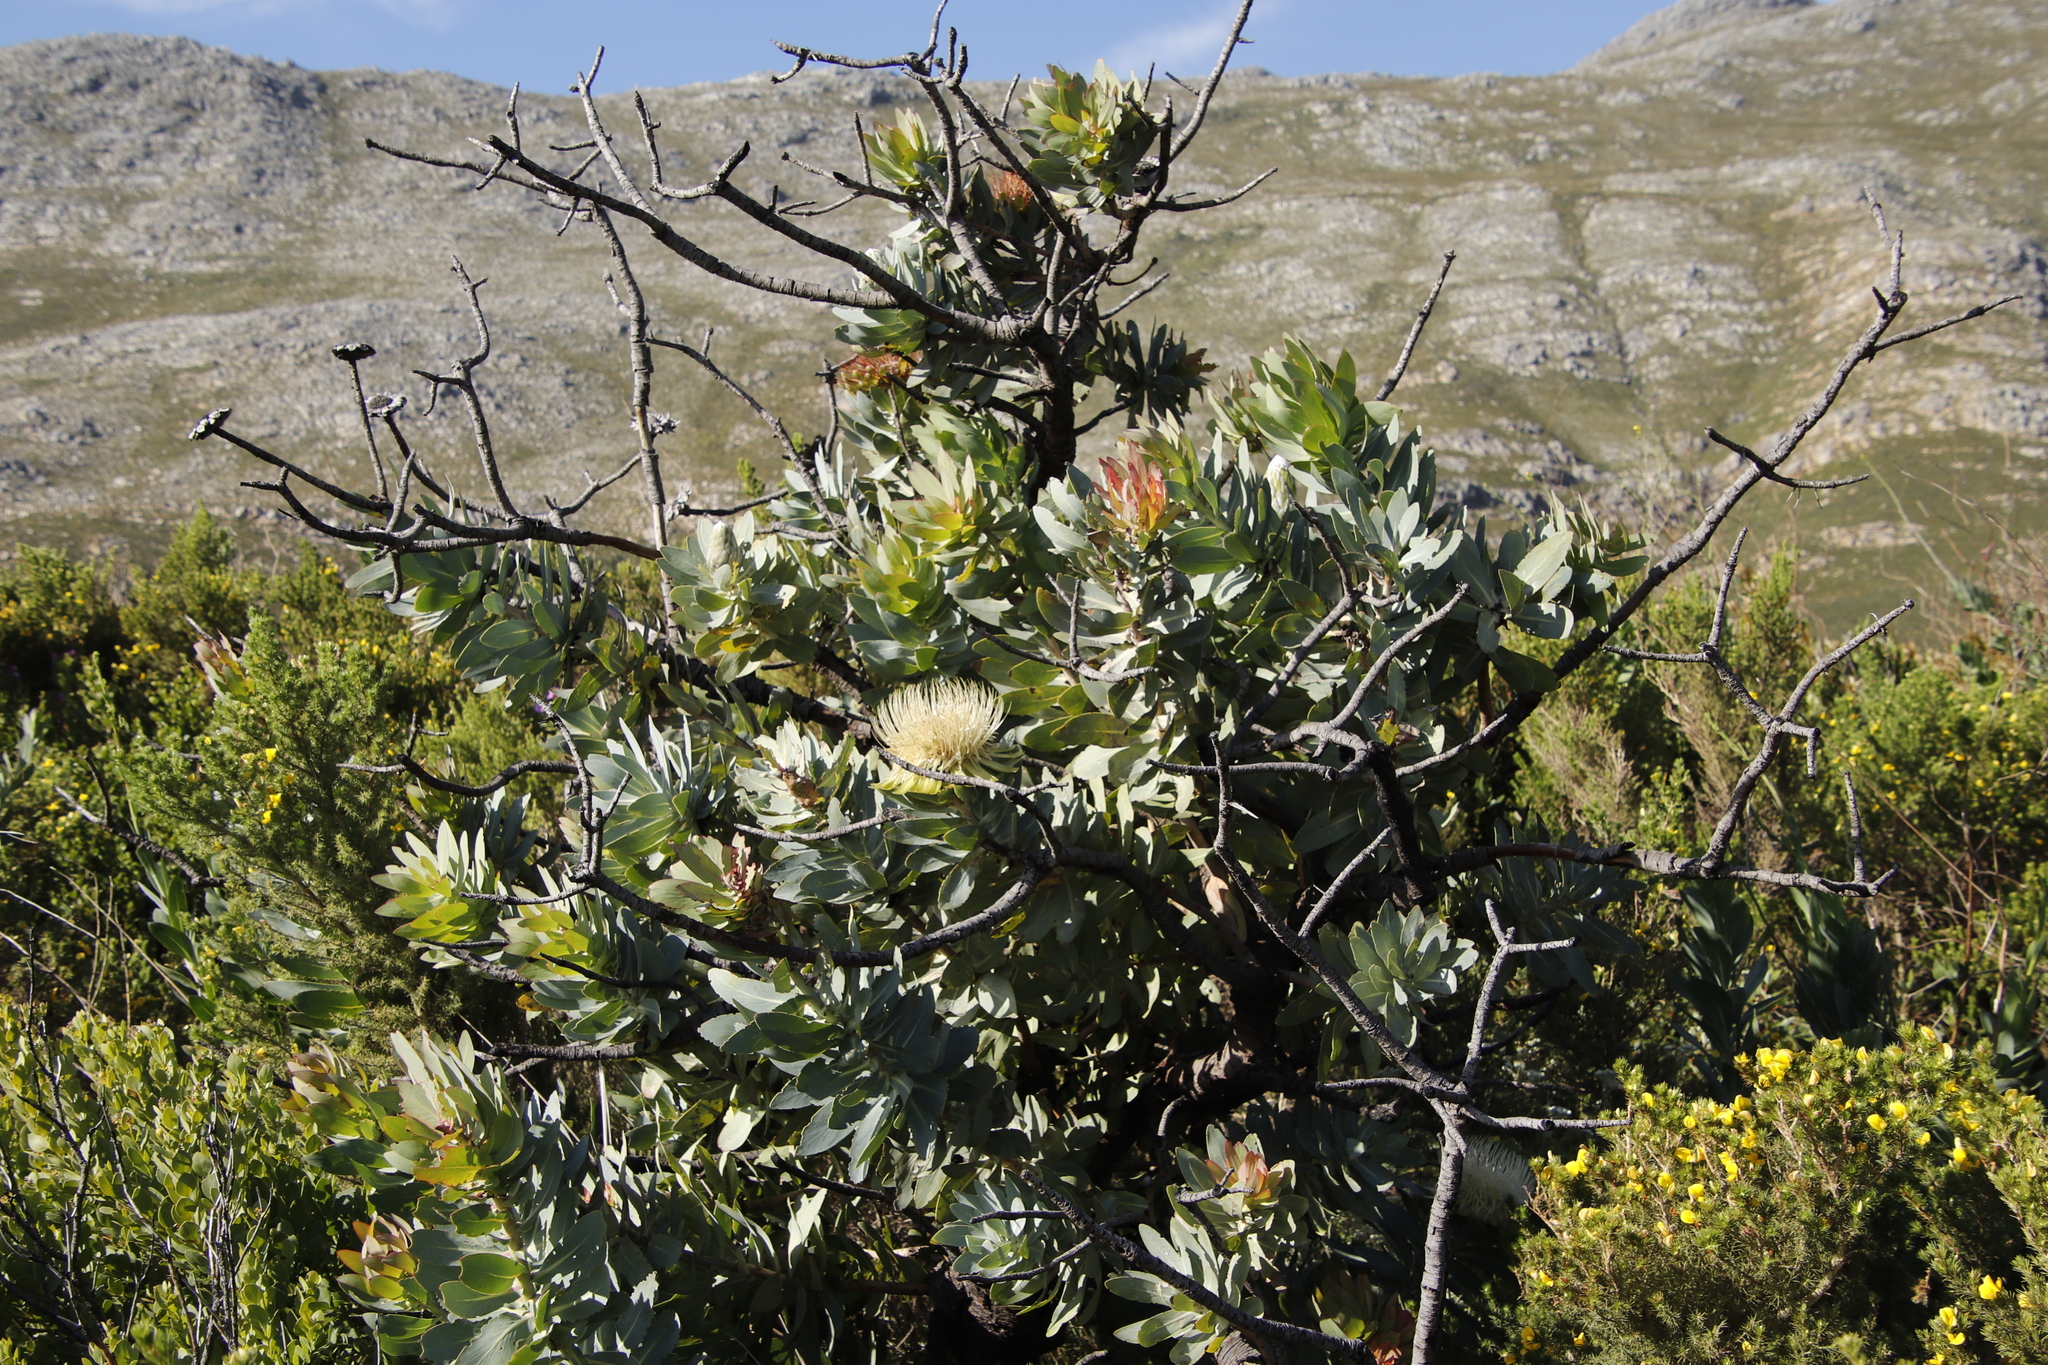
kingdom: Plantae
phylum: Tracheophyta
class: Magnoliopsida
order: Proteales
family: Proteaceae
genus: Protea
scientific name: Protea nitida
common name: Tree protea
